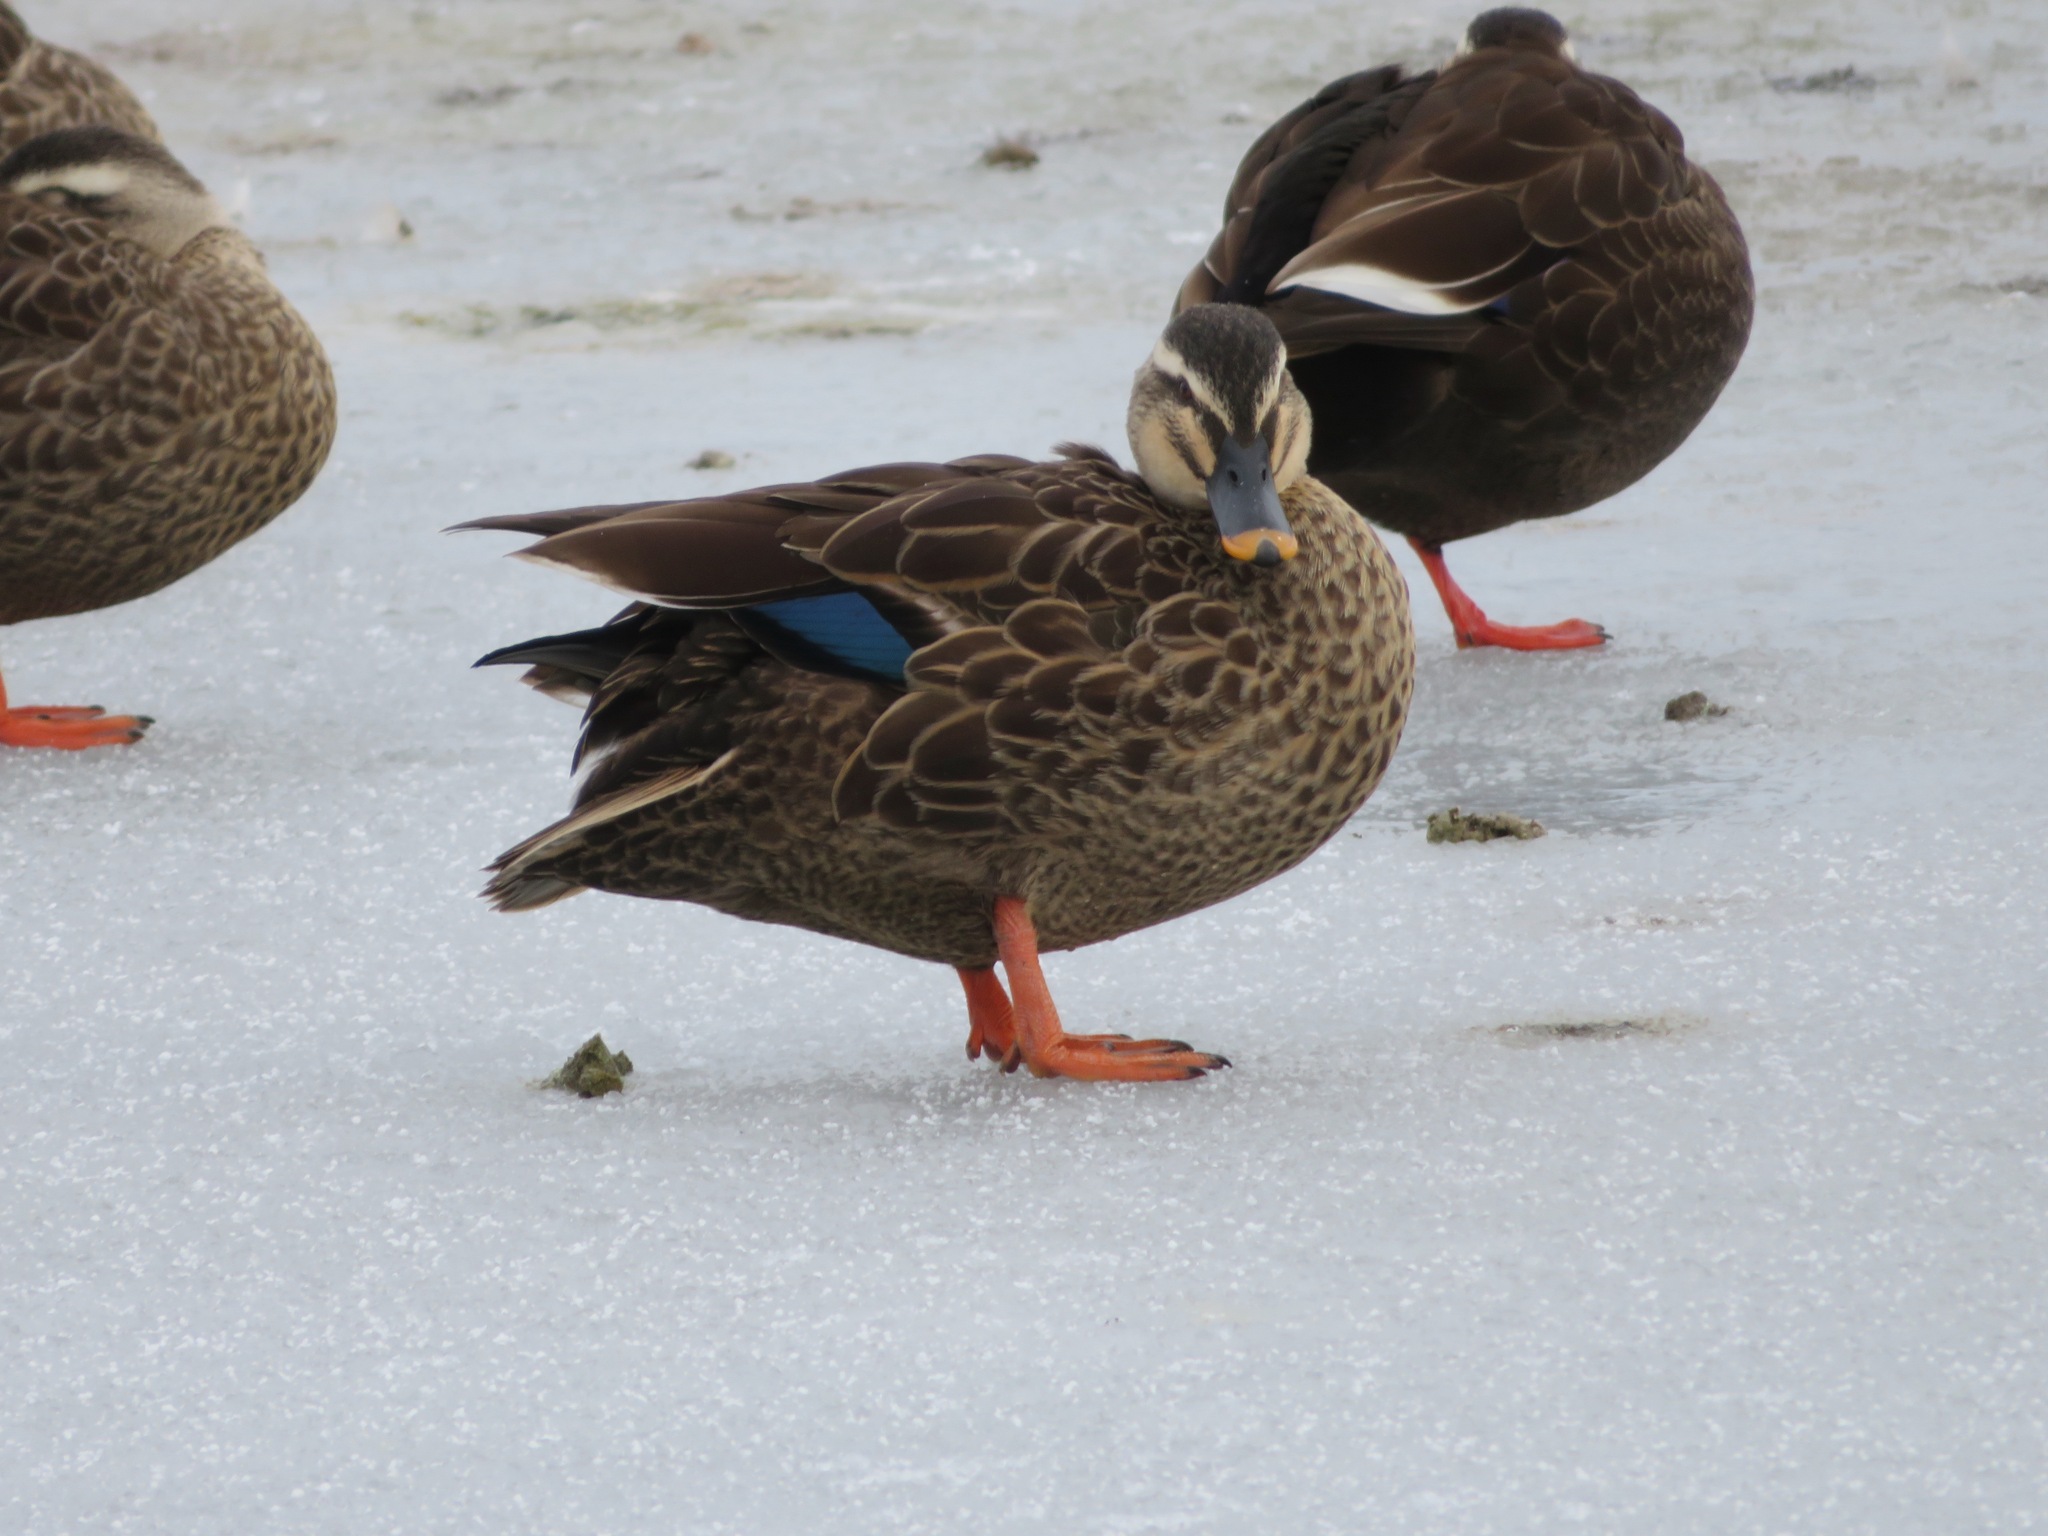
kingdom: Animalia
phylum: Chordata
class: Aves
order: Anseriformes
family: Anatidae
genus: Anas
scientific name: Anas zonorhyncha
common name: Eastern spot-billed duck
